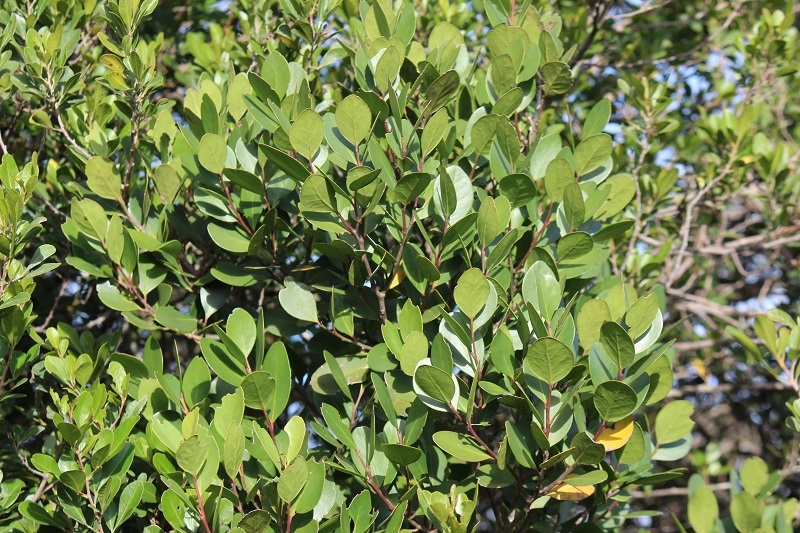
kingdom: Plantae
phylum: Tracheophyta
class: Magnoliopsida
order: Celastrales
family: Celastraceae
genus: Pterocelastrus
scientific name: Pterocelastrus tricuspidatus
